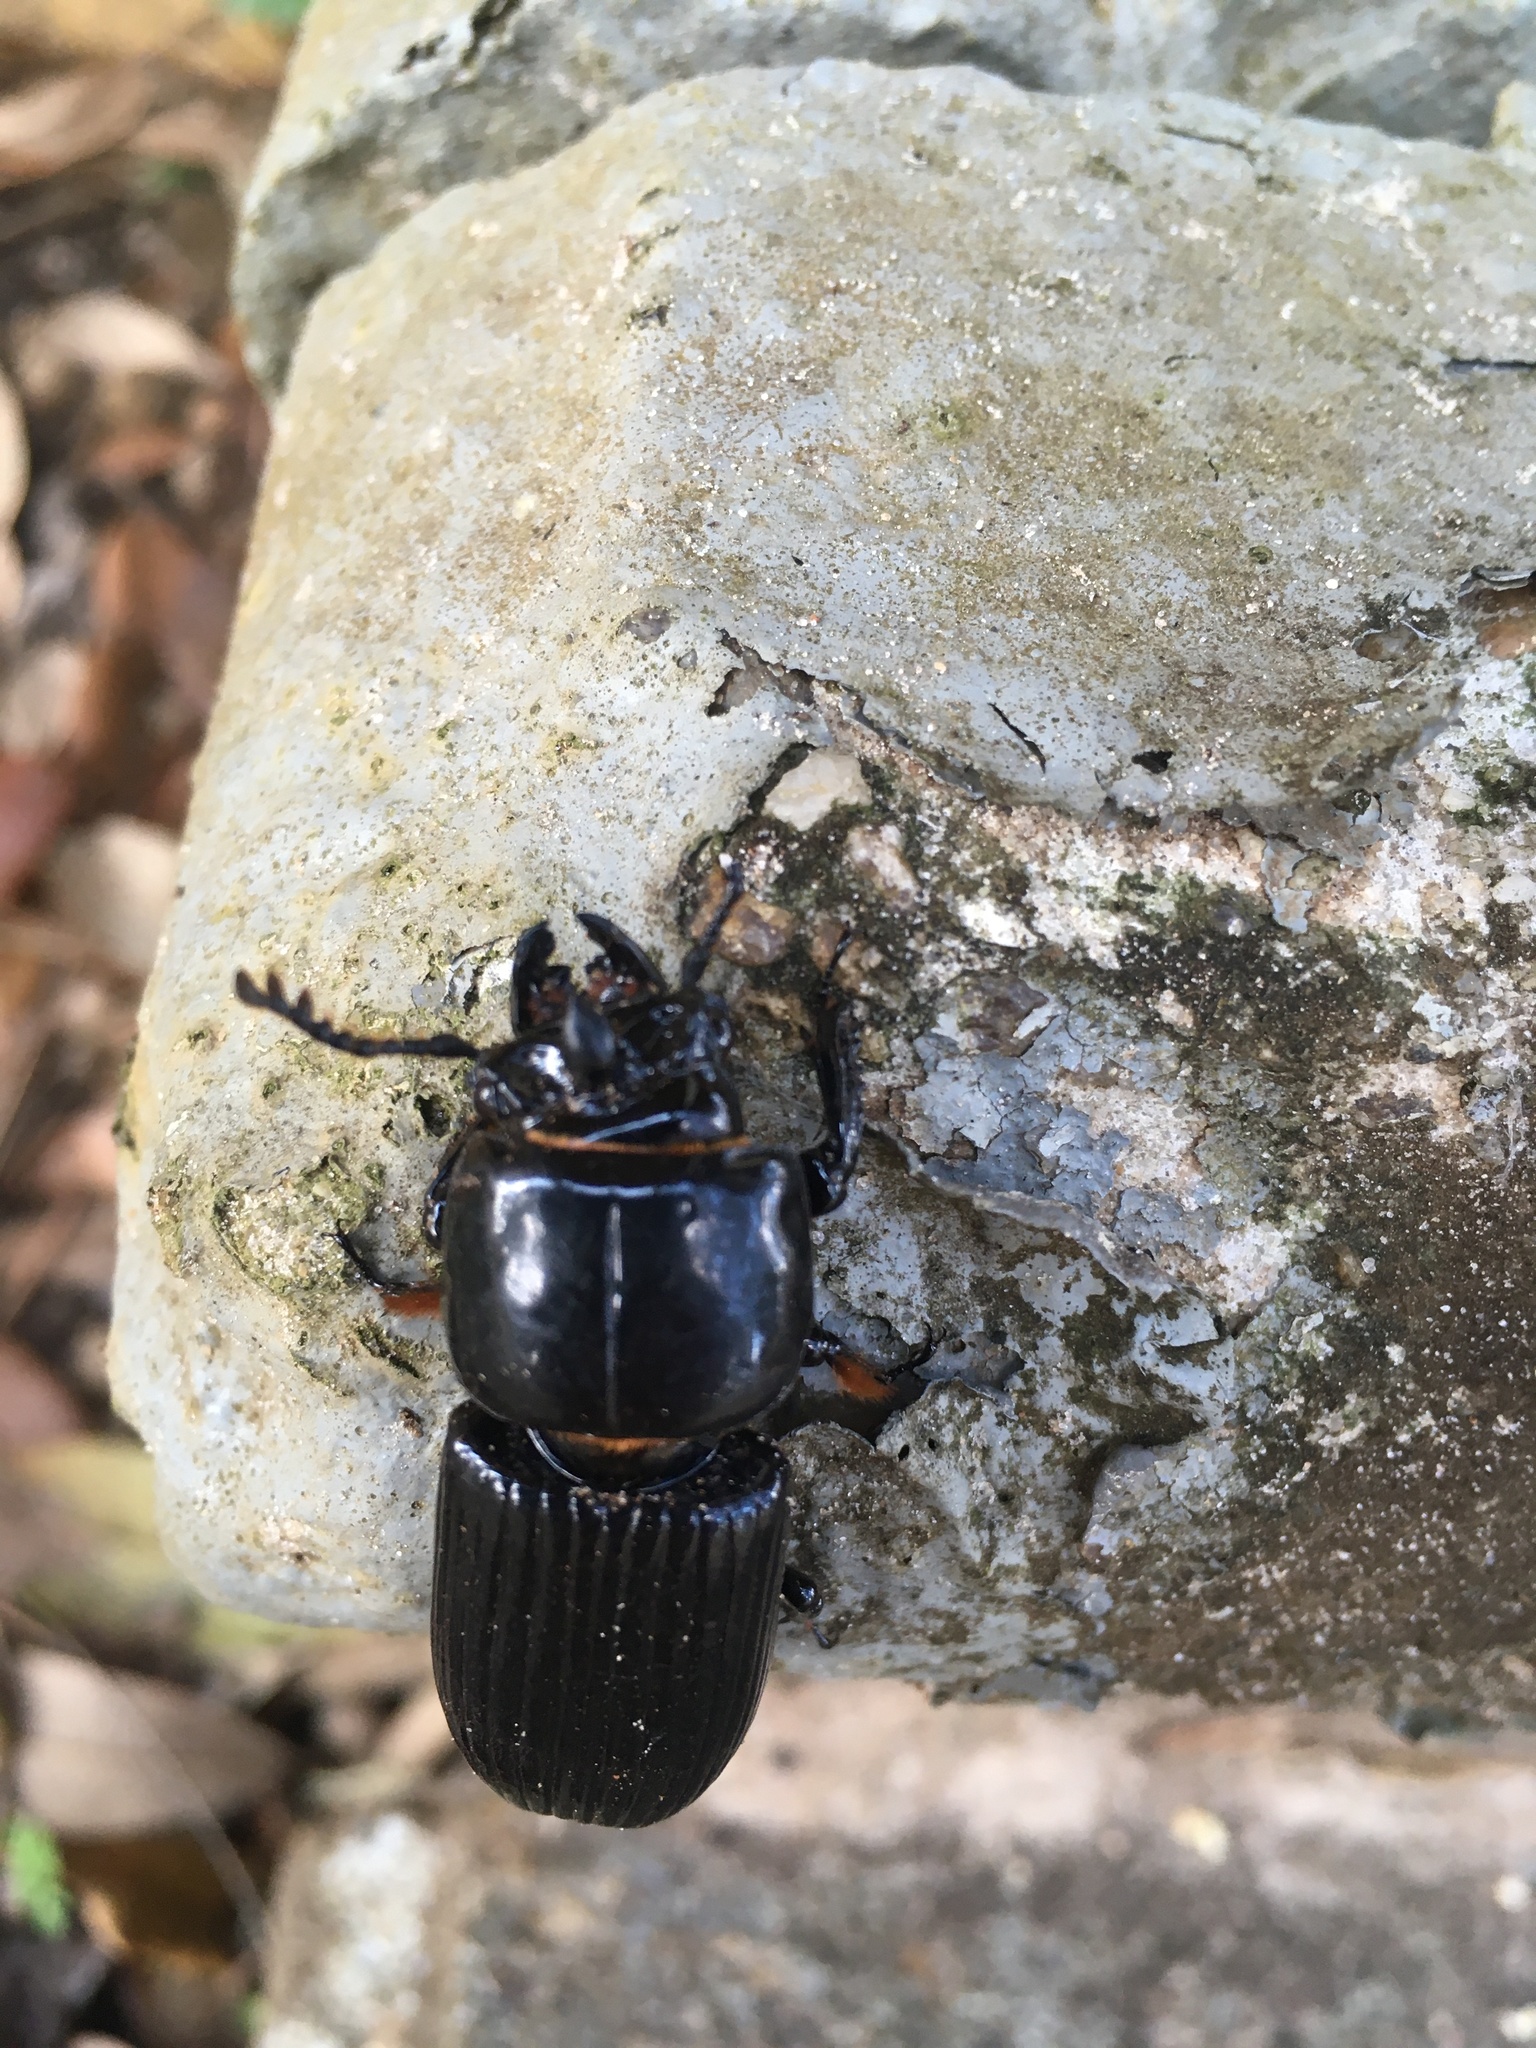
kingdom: Animalia
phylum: Arthropoda
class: Insecta
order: Coleoptera
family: Passalidae
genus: Odontotaenius
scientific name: Odontotaenius disjunctus
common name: Patent leather beetle
